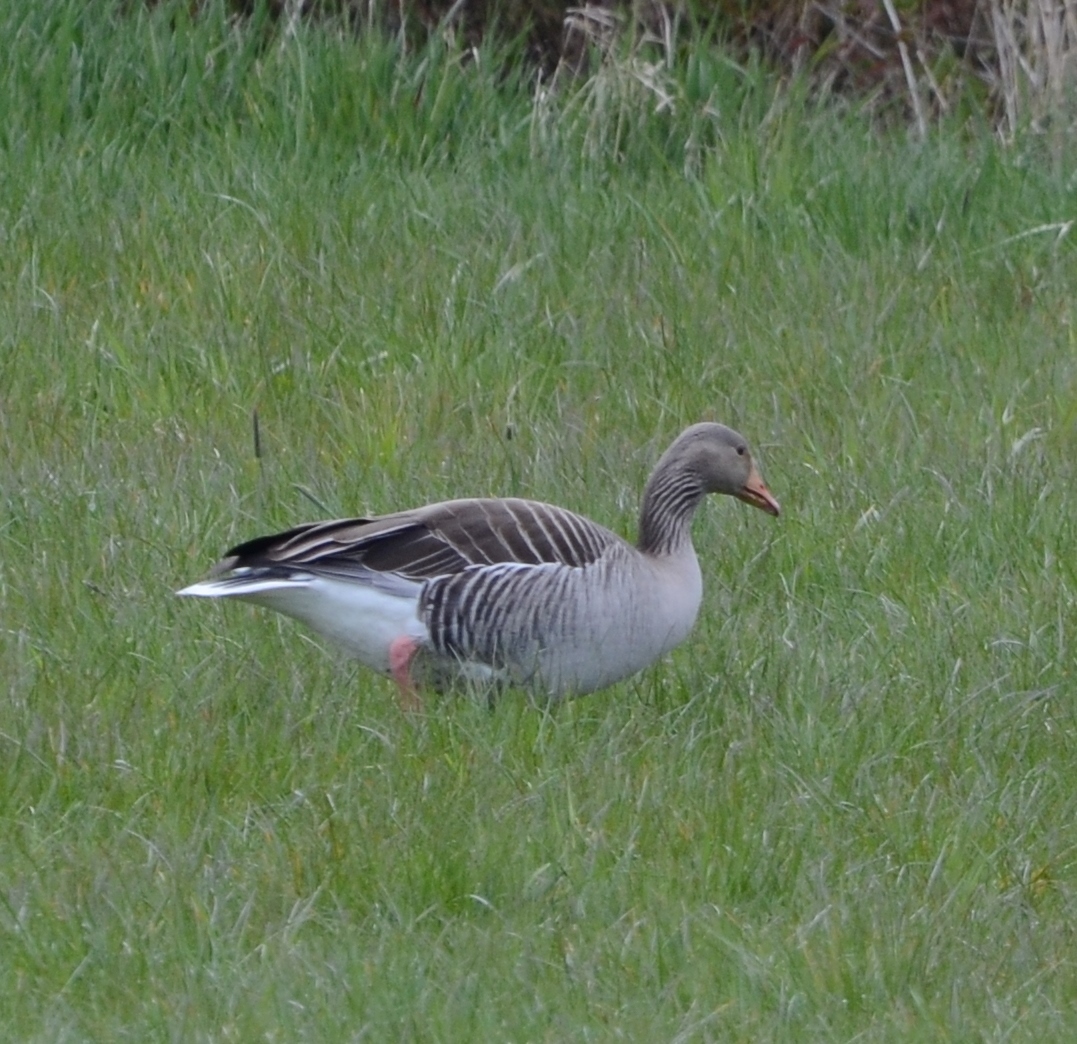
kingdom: Animalia
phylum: Chordata
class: Aves
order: Anseriformes
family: Anatidae
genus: Anser
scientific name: Anser anser
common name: Greylag goose
